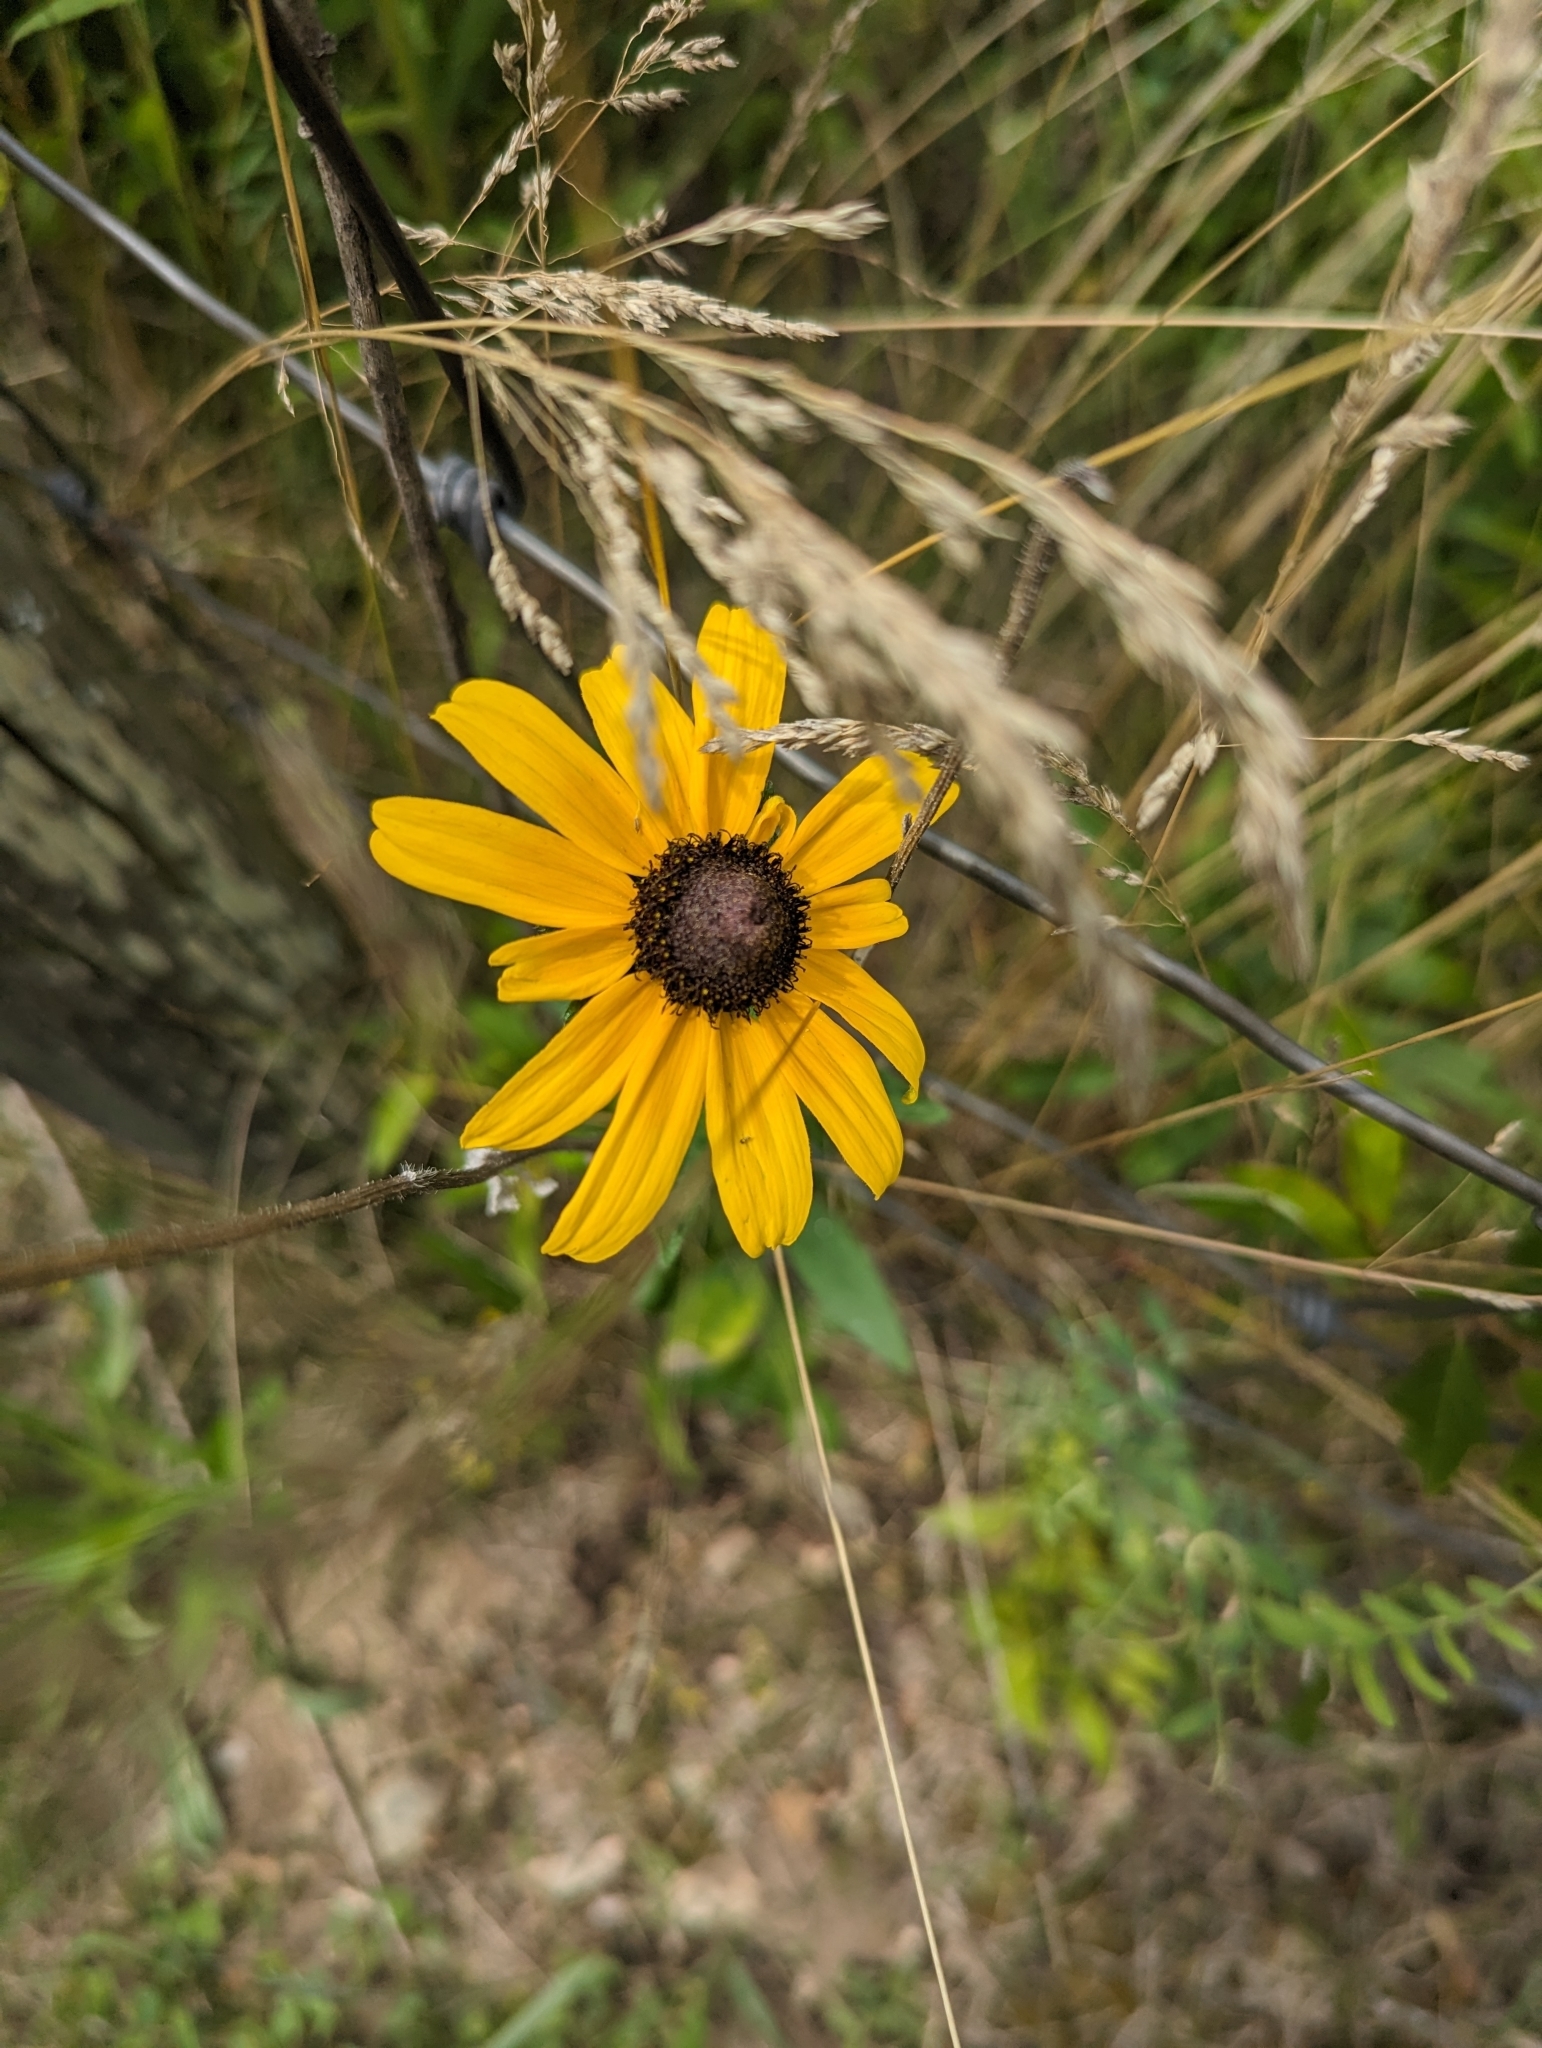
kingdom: Plantae
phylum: Tracheophyta
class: Magnoliopsida
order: Asterales
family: Asteraceae
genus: Rudbeckia
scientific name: Rudbeckia hirta
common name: Black-eyed-susan
